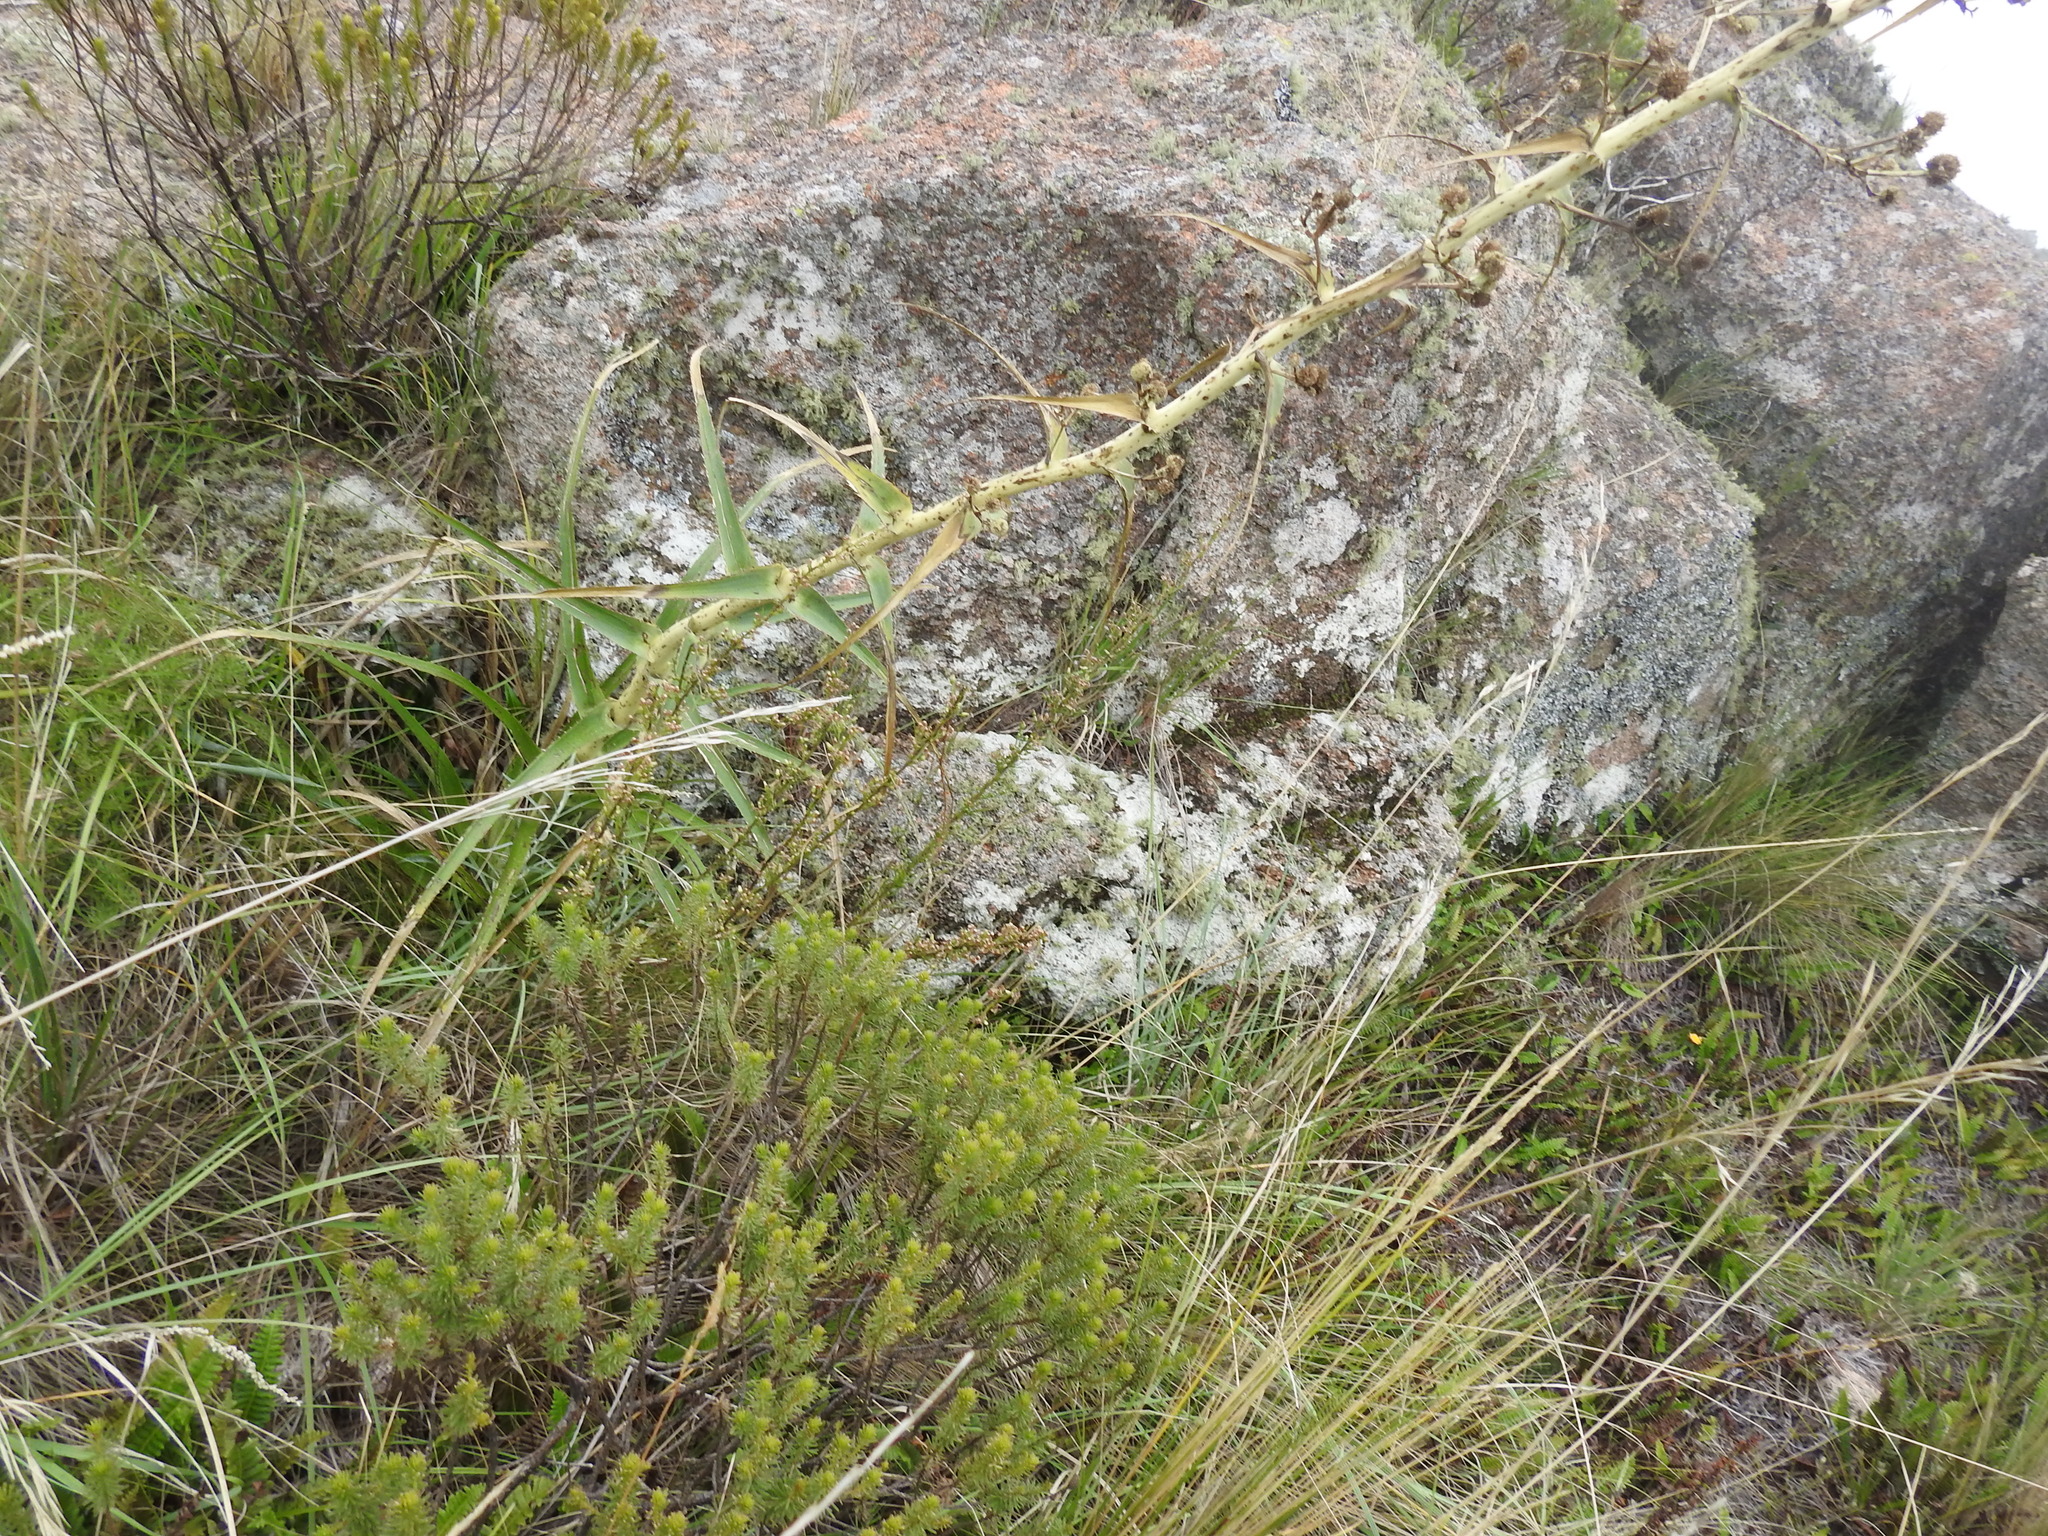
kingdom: Plantae
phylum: Tracheophyta
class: Magnoliopsida
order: Apiales
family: Apiaceae
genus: Eryngium
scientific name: Eryngium horridum
